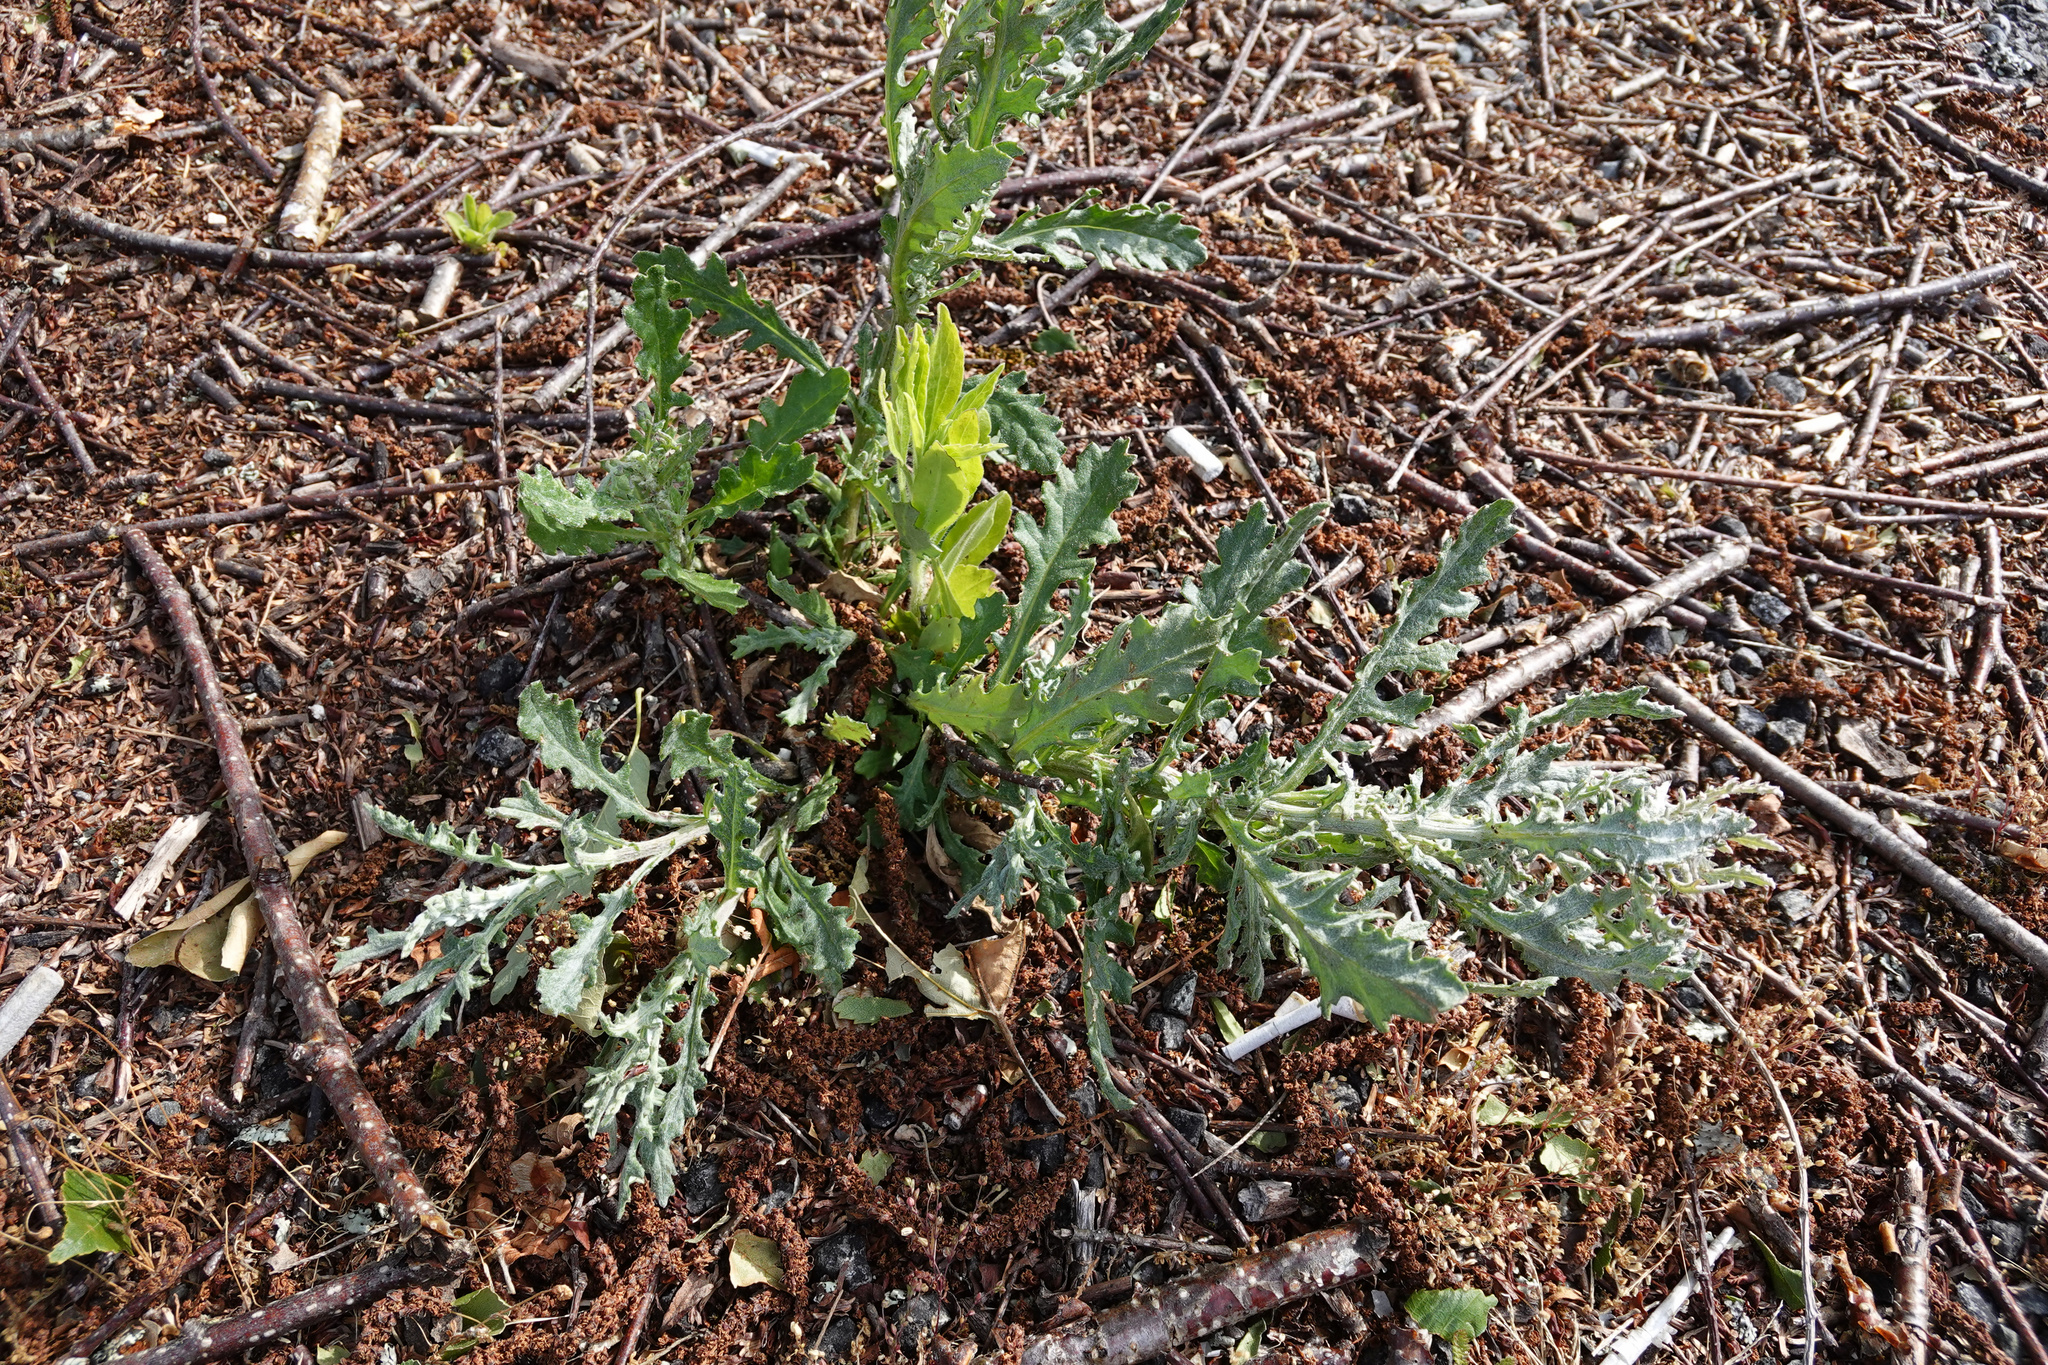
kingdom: Plantae
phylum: Tracheophyta
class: Magnoliopsida
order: Asterales
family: Asteraceae
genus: Senecio
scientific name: Senecio glomeratus
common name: Cutleaf burnweed
